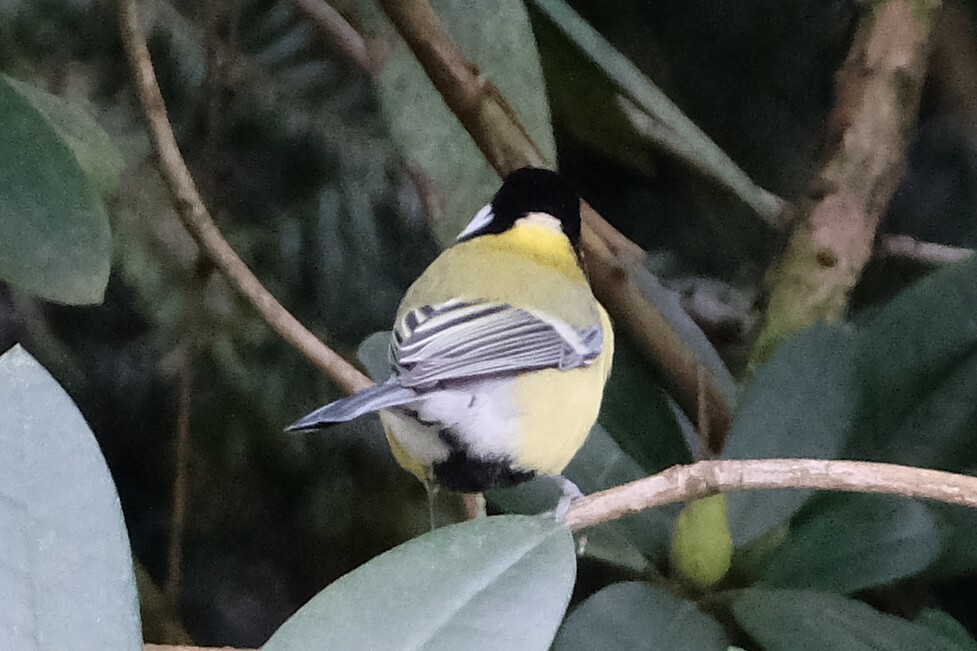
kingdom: Animalia
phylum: Chordata
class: Aves
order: Passeriformes
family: Paridae
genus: Parus
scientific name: Parus major
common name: Great tit
